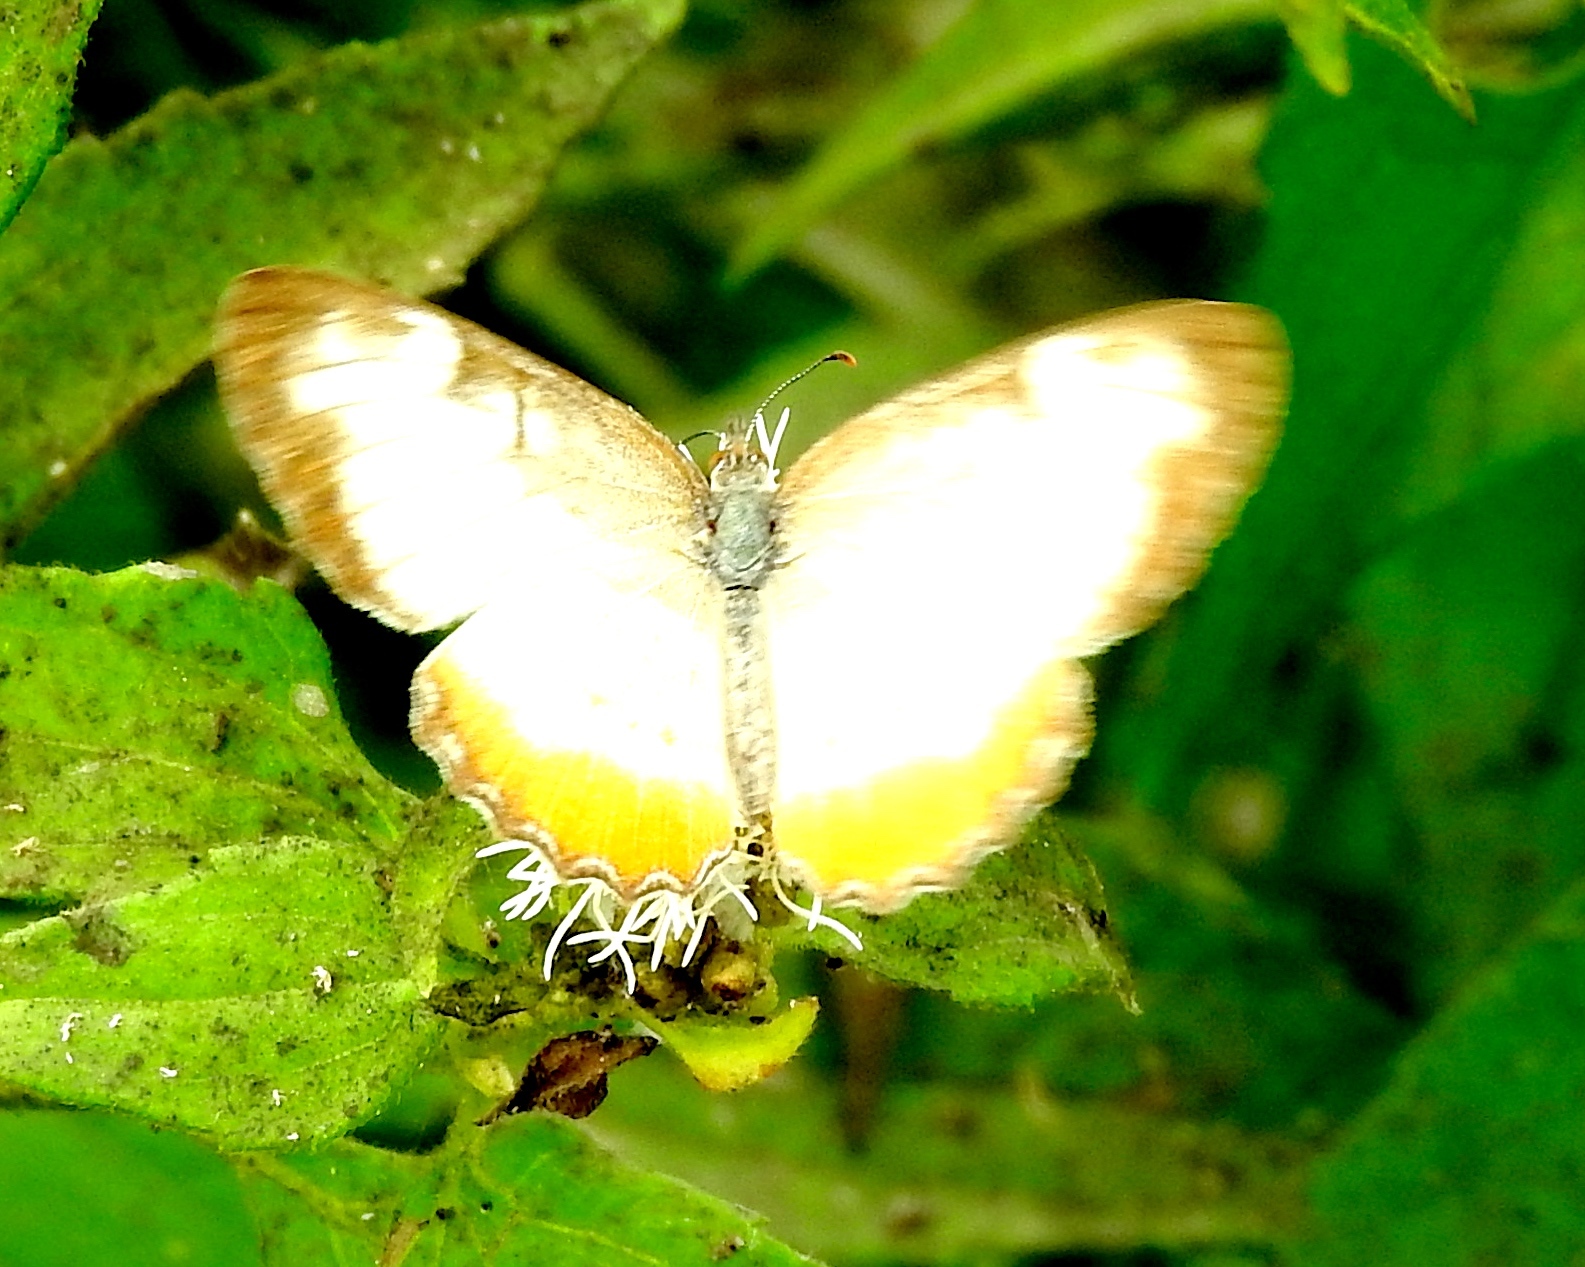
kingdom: Animalia
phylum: Arthropoda
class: Insecta
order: Lepidoptera
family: Nymphalidae
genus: Mestra
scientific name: Mestra amymone
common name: Common mestra
